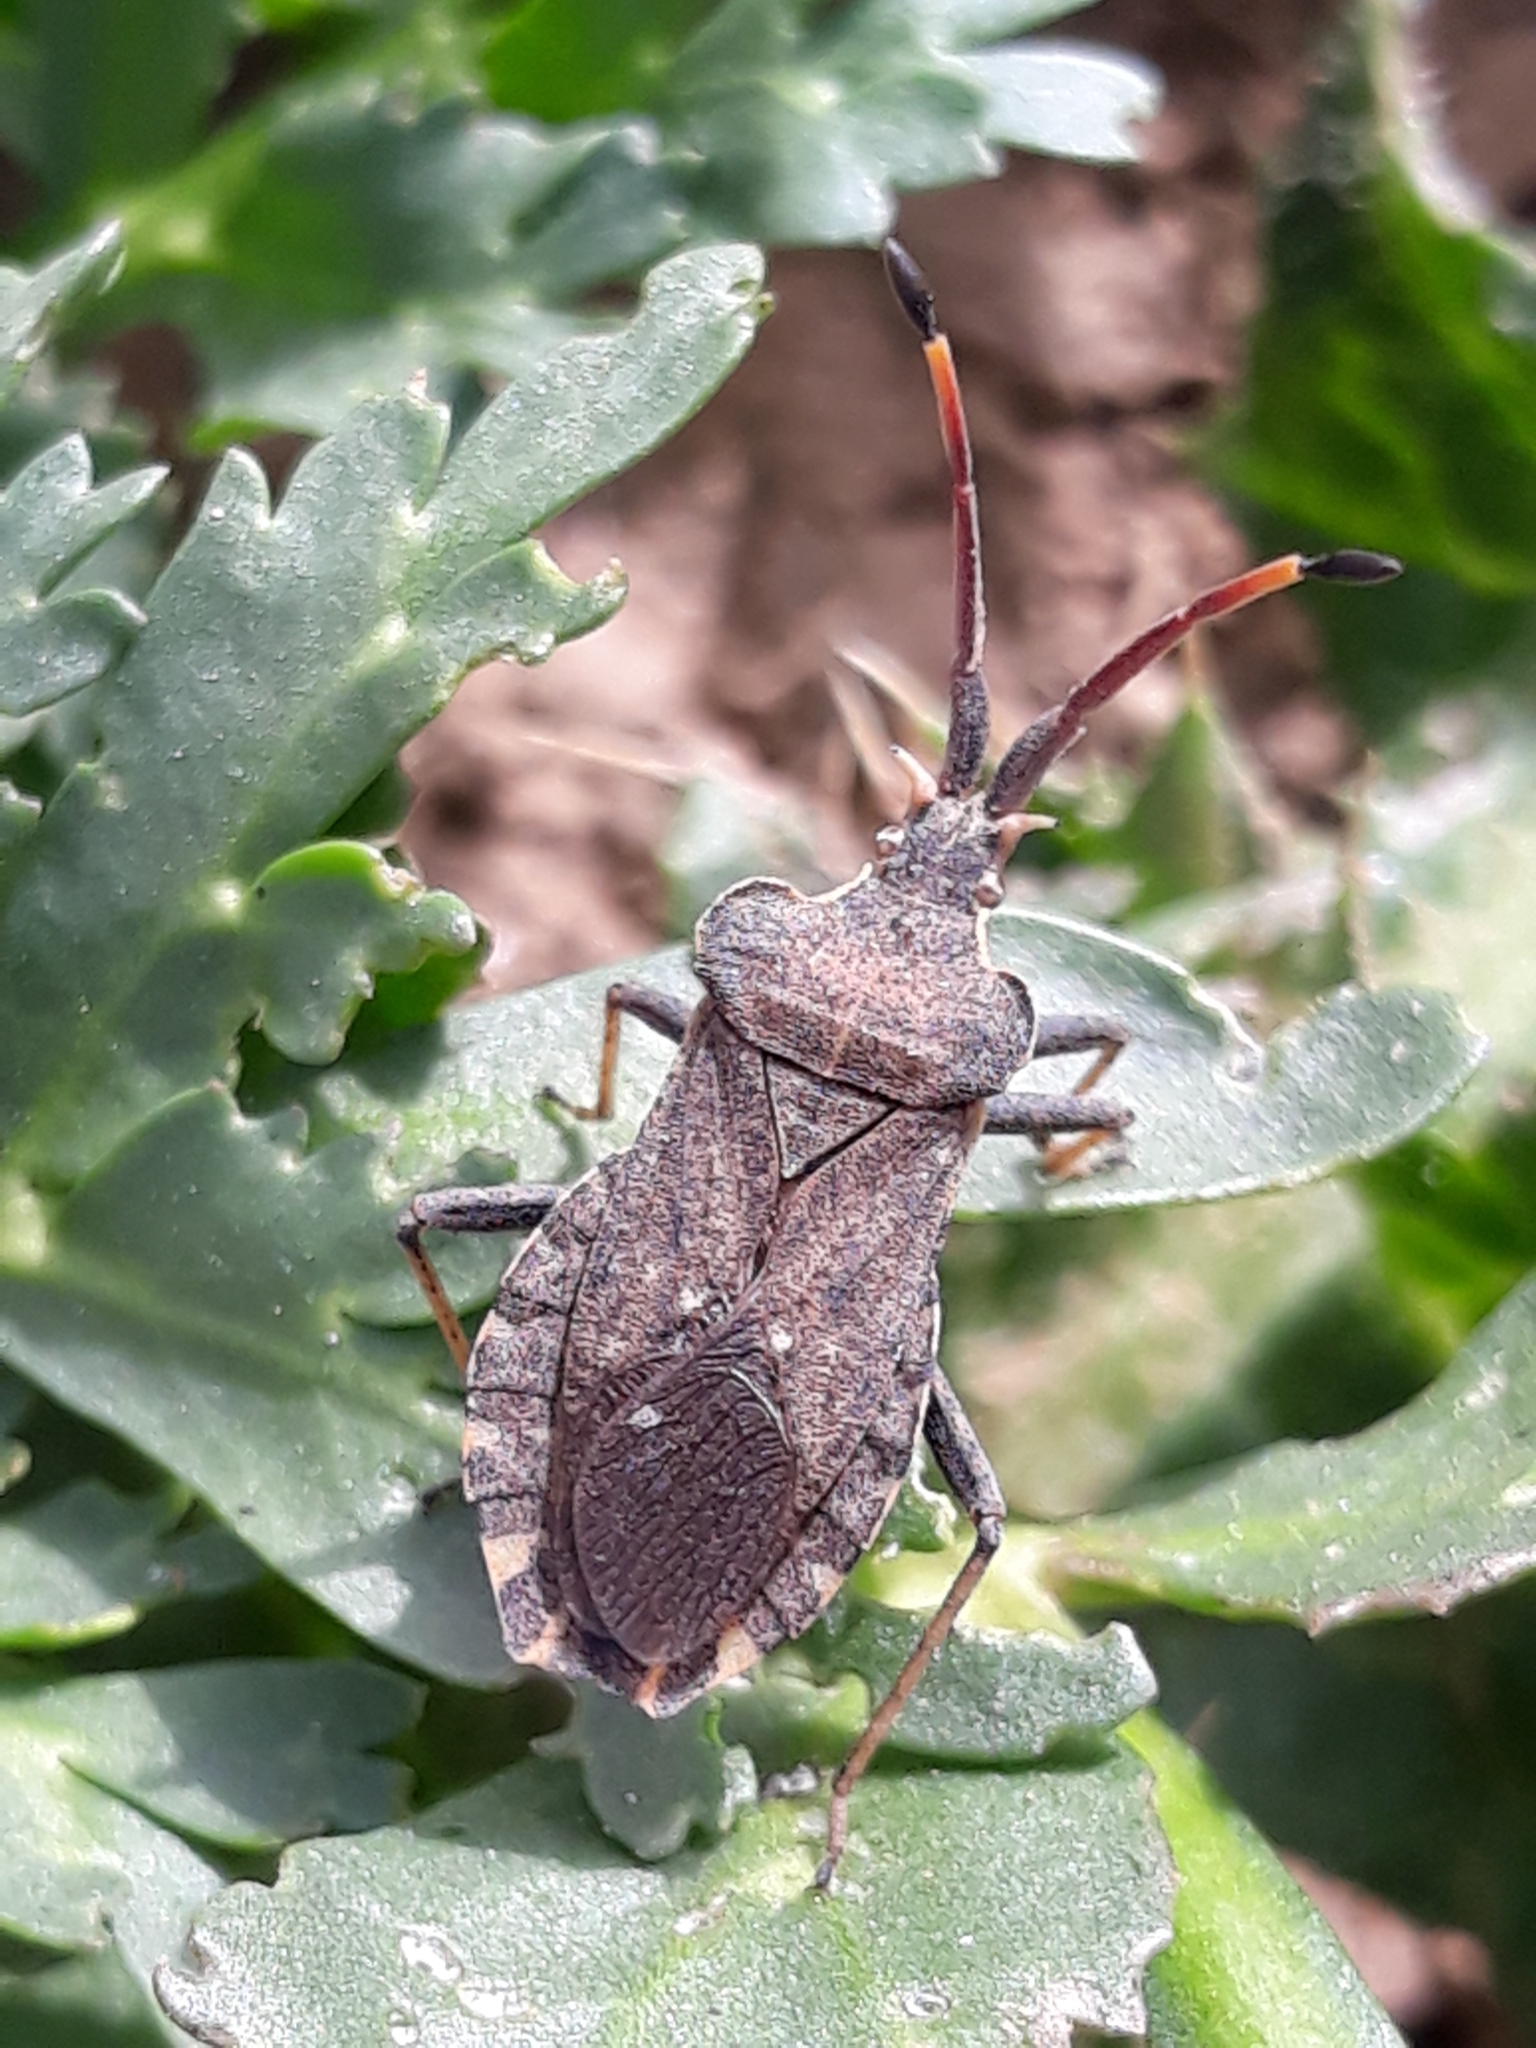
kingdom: Animalia
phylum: Arthropoda
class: Insecta
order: Hemiptera
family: Coreidae
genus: Enoplops
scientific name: Enoplops bos
